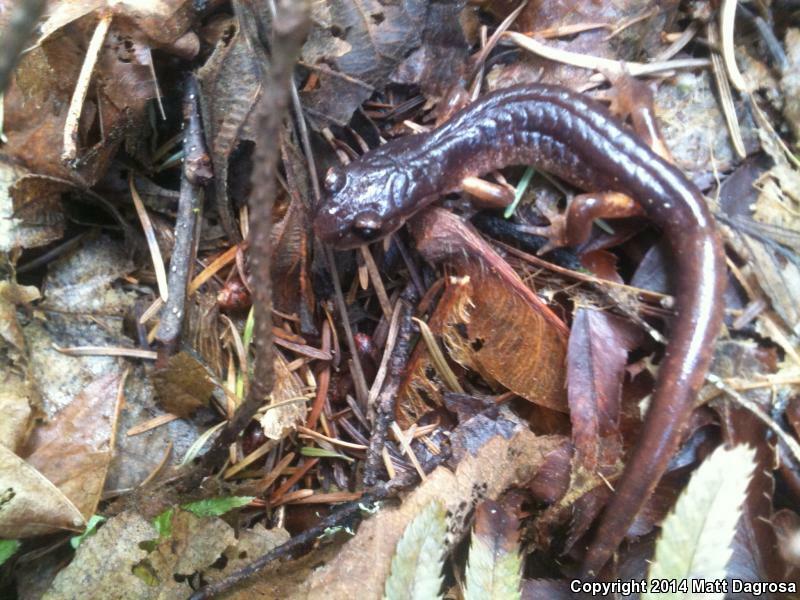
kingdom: Animalia
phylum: Chordata
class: Amphibia
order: Caudata
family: Plethodontidae
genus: Ensatina
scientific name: Ensatina eschscholtzii
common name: Ensatina
